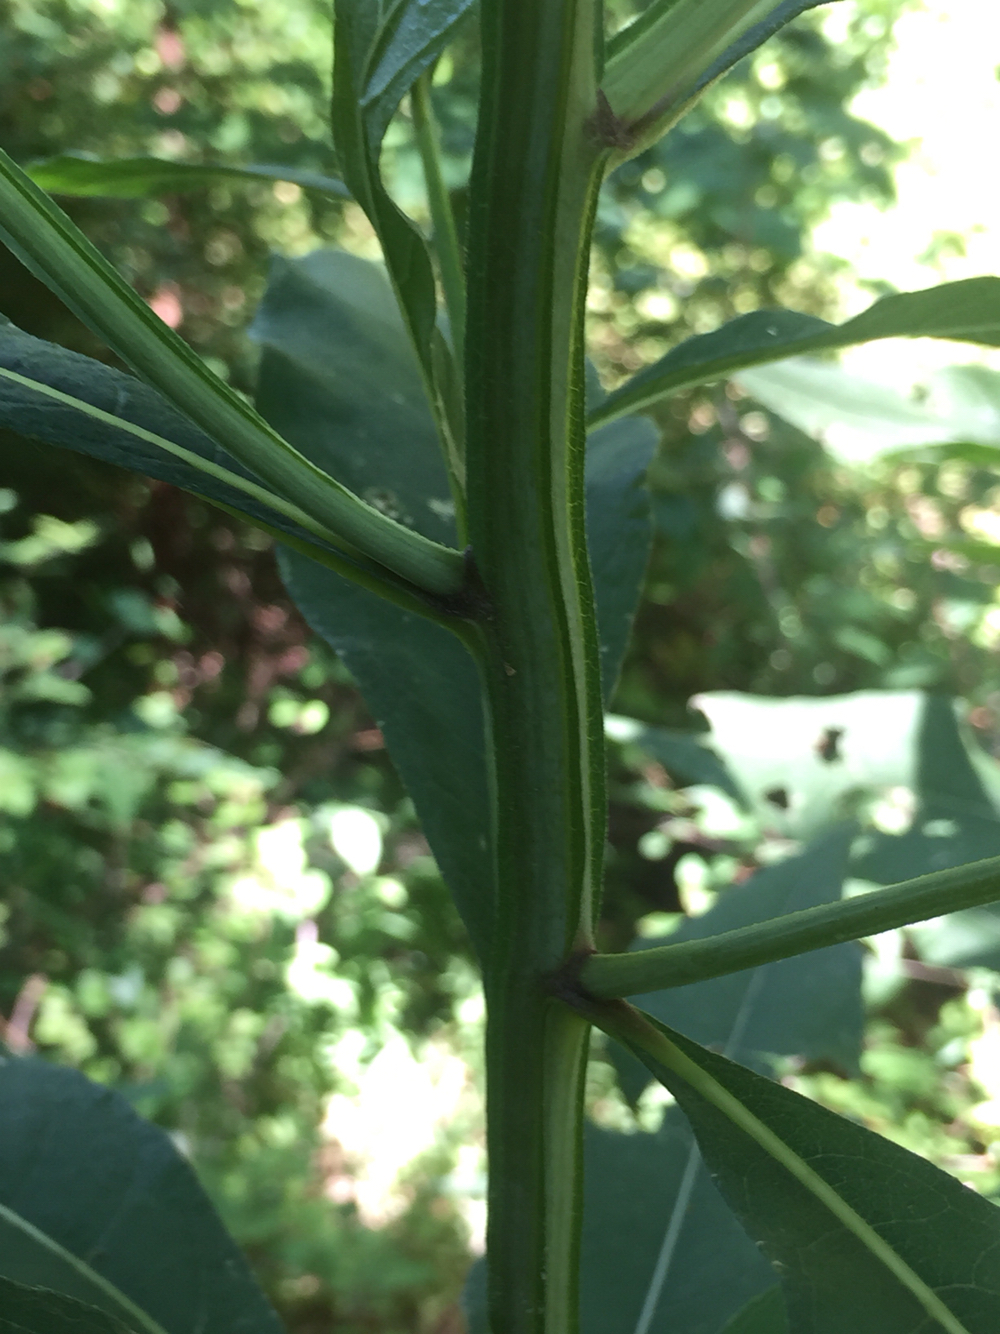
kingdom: Plantae
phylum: Tracheophyta
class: Magnoliopsida
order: Asterales
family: Asteraceae
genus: Verbesina
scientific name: Verbesina alternifolia
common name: Wingstem
